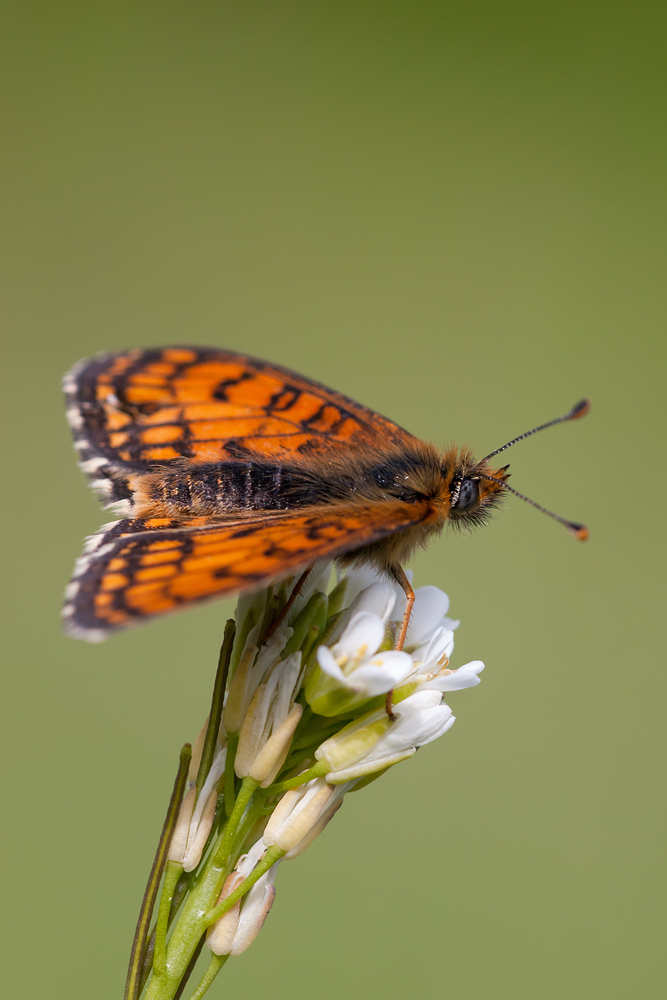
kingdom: Animalia
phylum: Arthropoda
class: Insecta
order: Lepidoptera
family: Nymphalidae
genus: Mellicta
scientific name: Mellicta parthenoides
